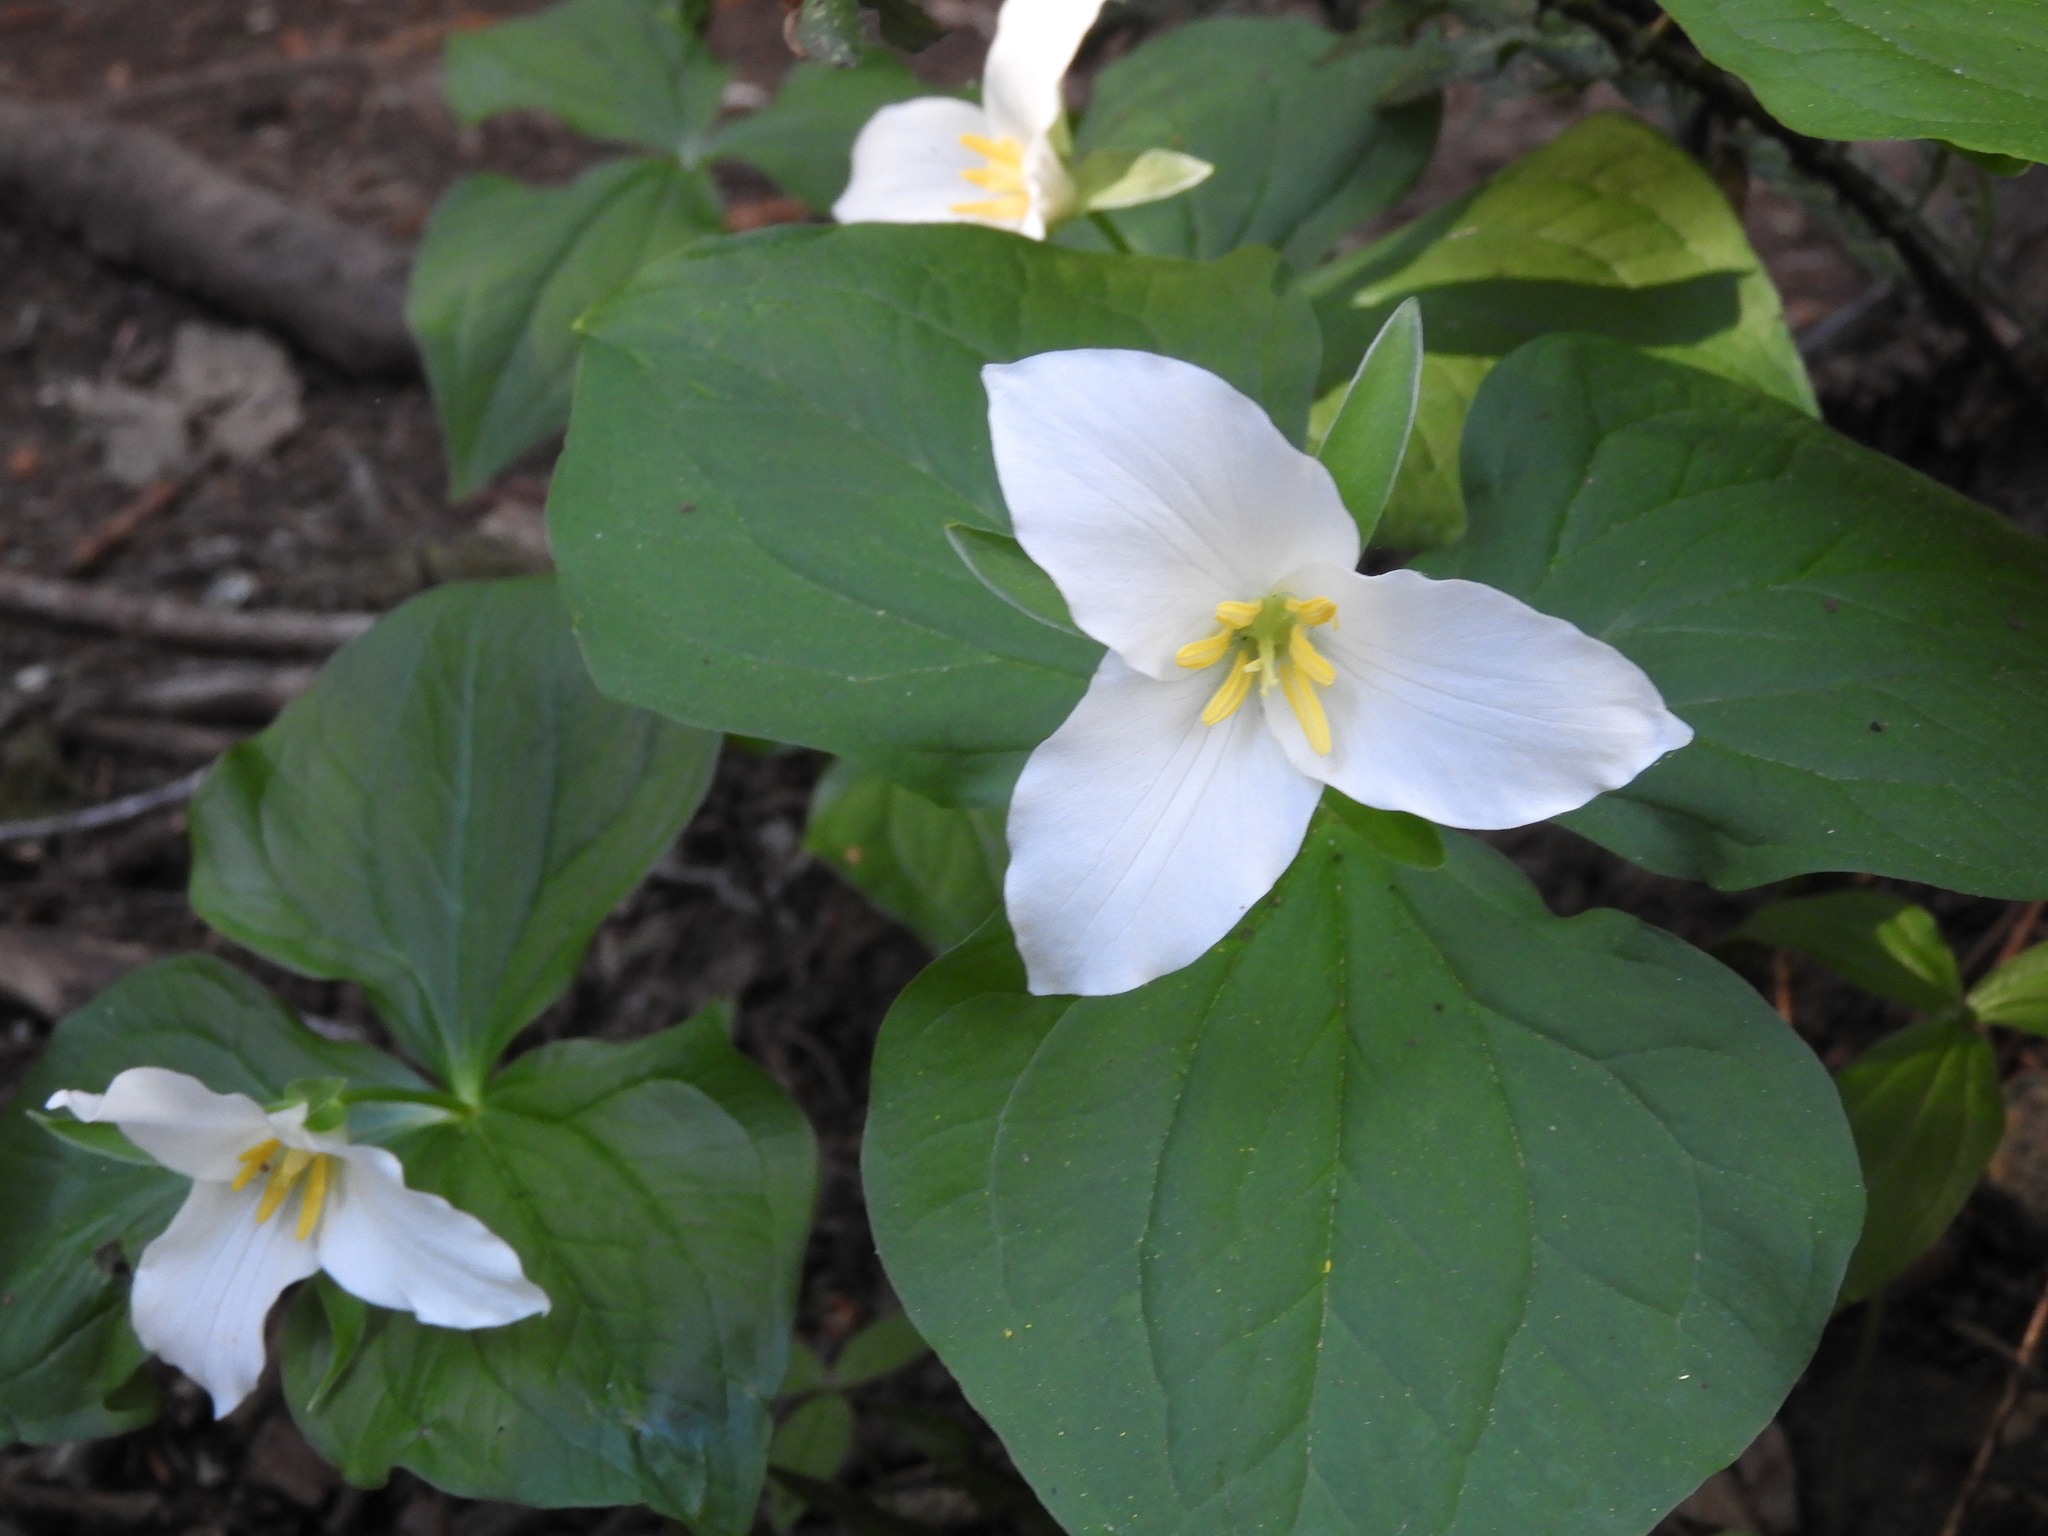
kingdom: Plantae
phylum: Tracheophyta
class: Liliopsida
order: Liliales
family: Melanthiaceae
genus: Trillium
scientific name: Trillium ovatum
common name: Pacific trillium
